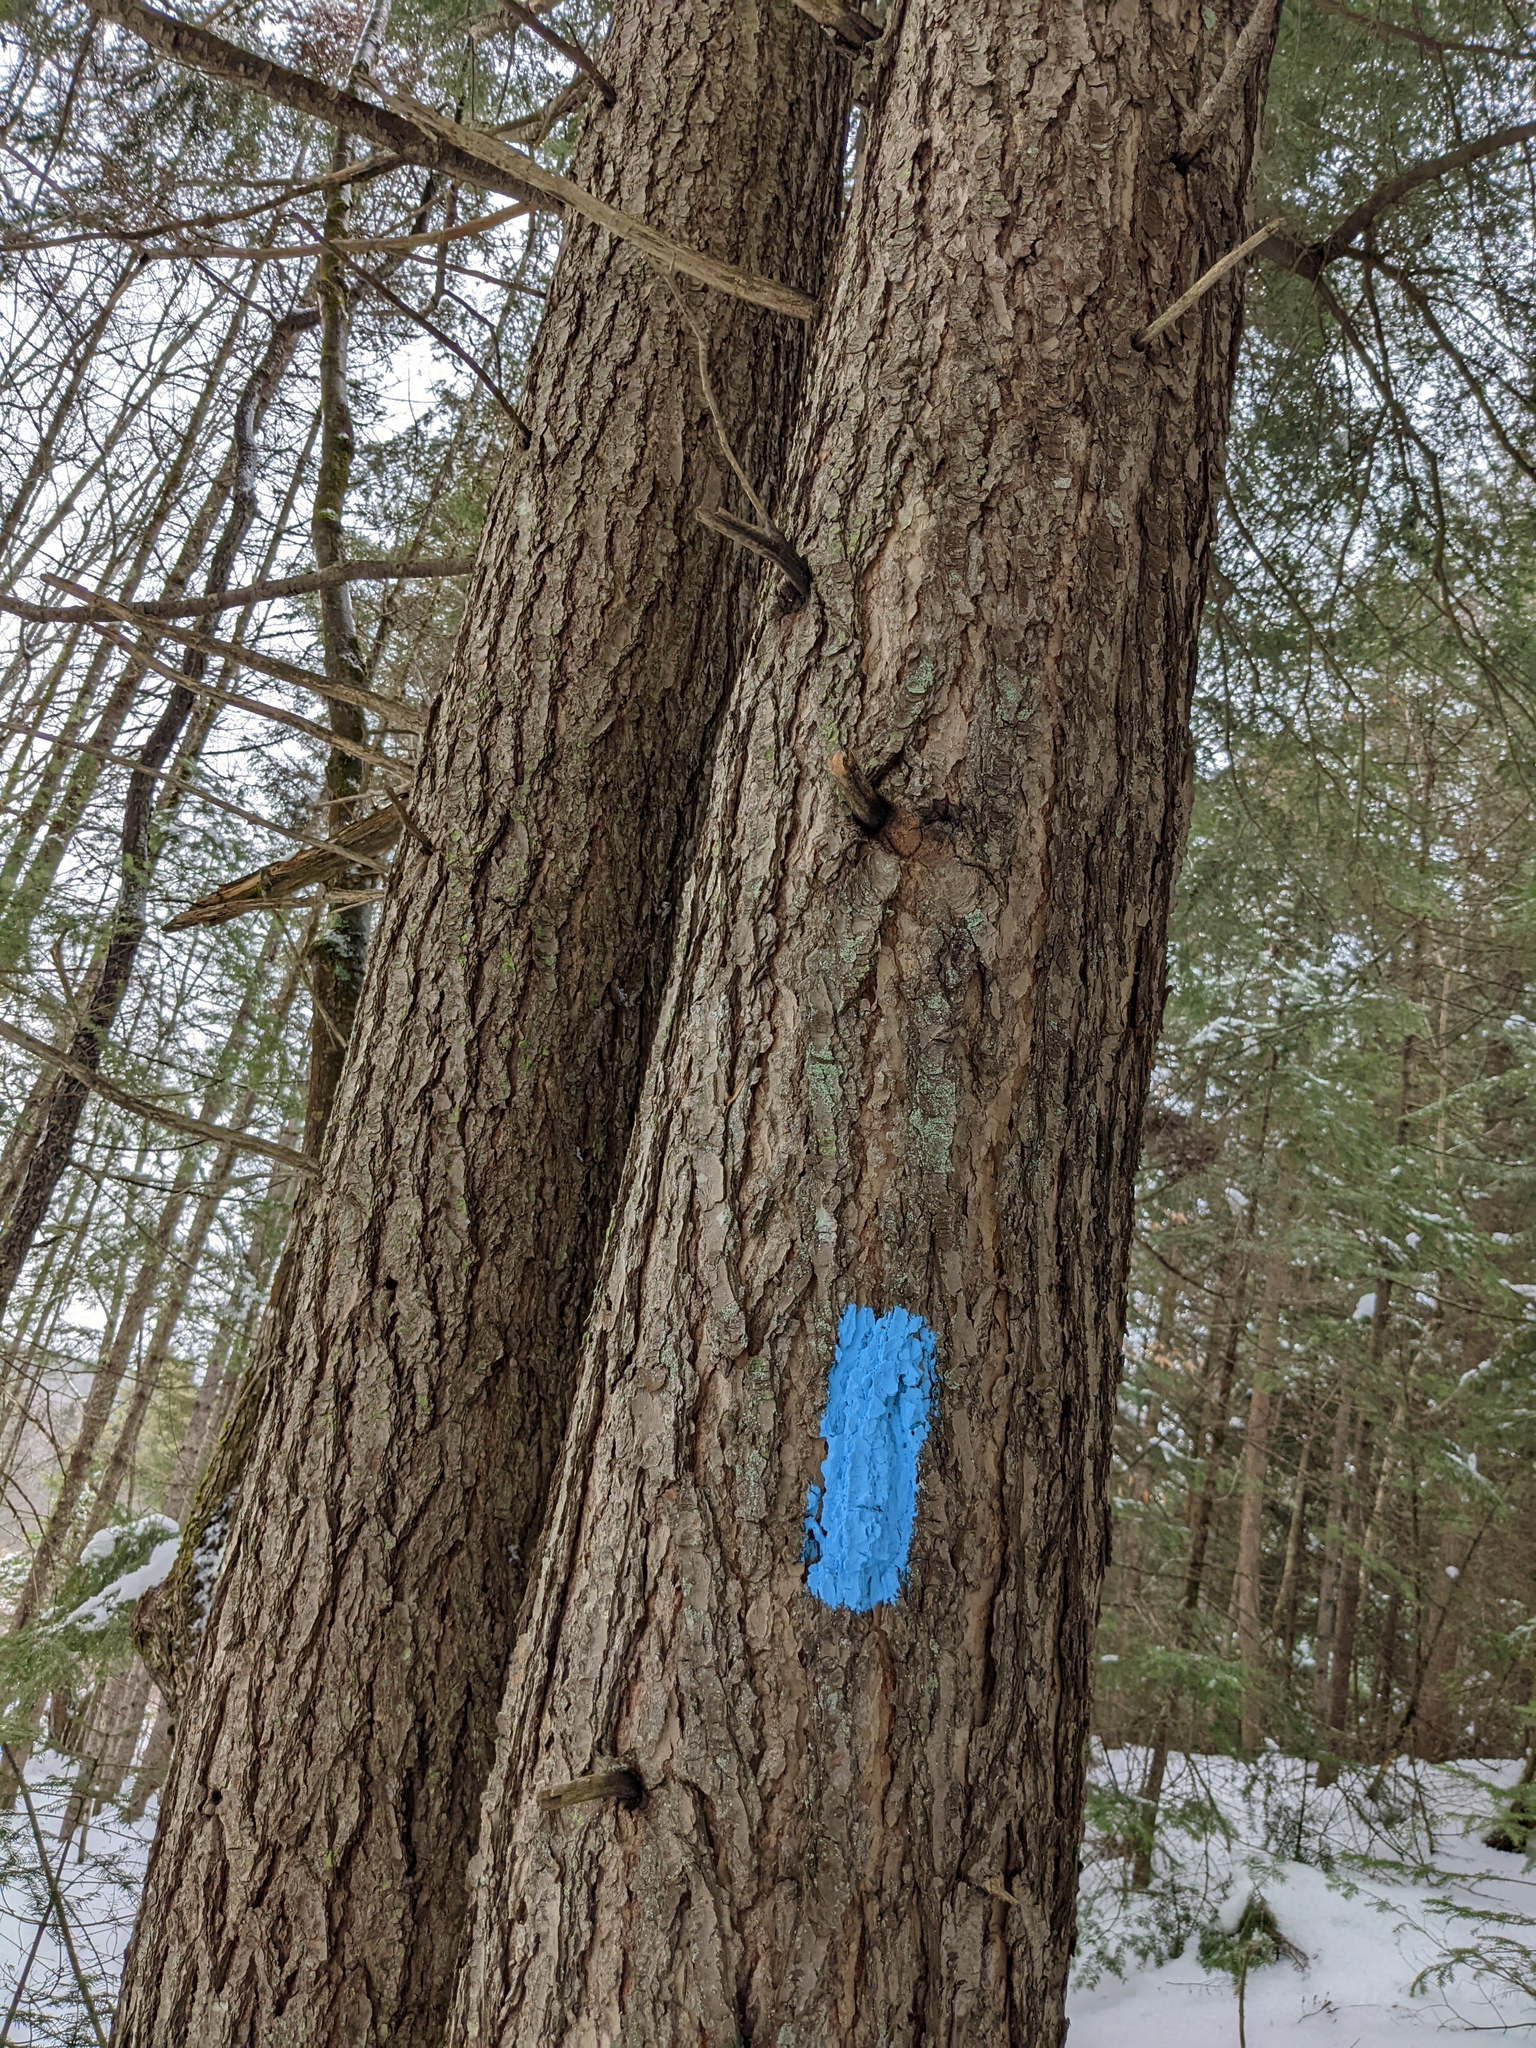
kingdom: Plantae
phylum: Tracheophyta
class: Pinopsida
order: Pinales
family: Pinaceae
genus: Tsuga
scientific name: Tsuga canadensis
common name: Eastern hemlock
